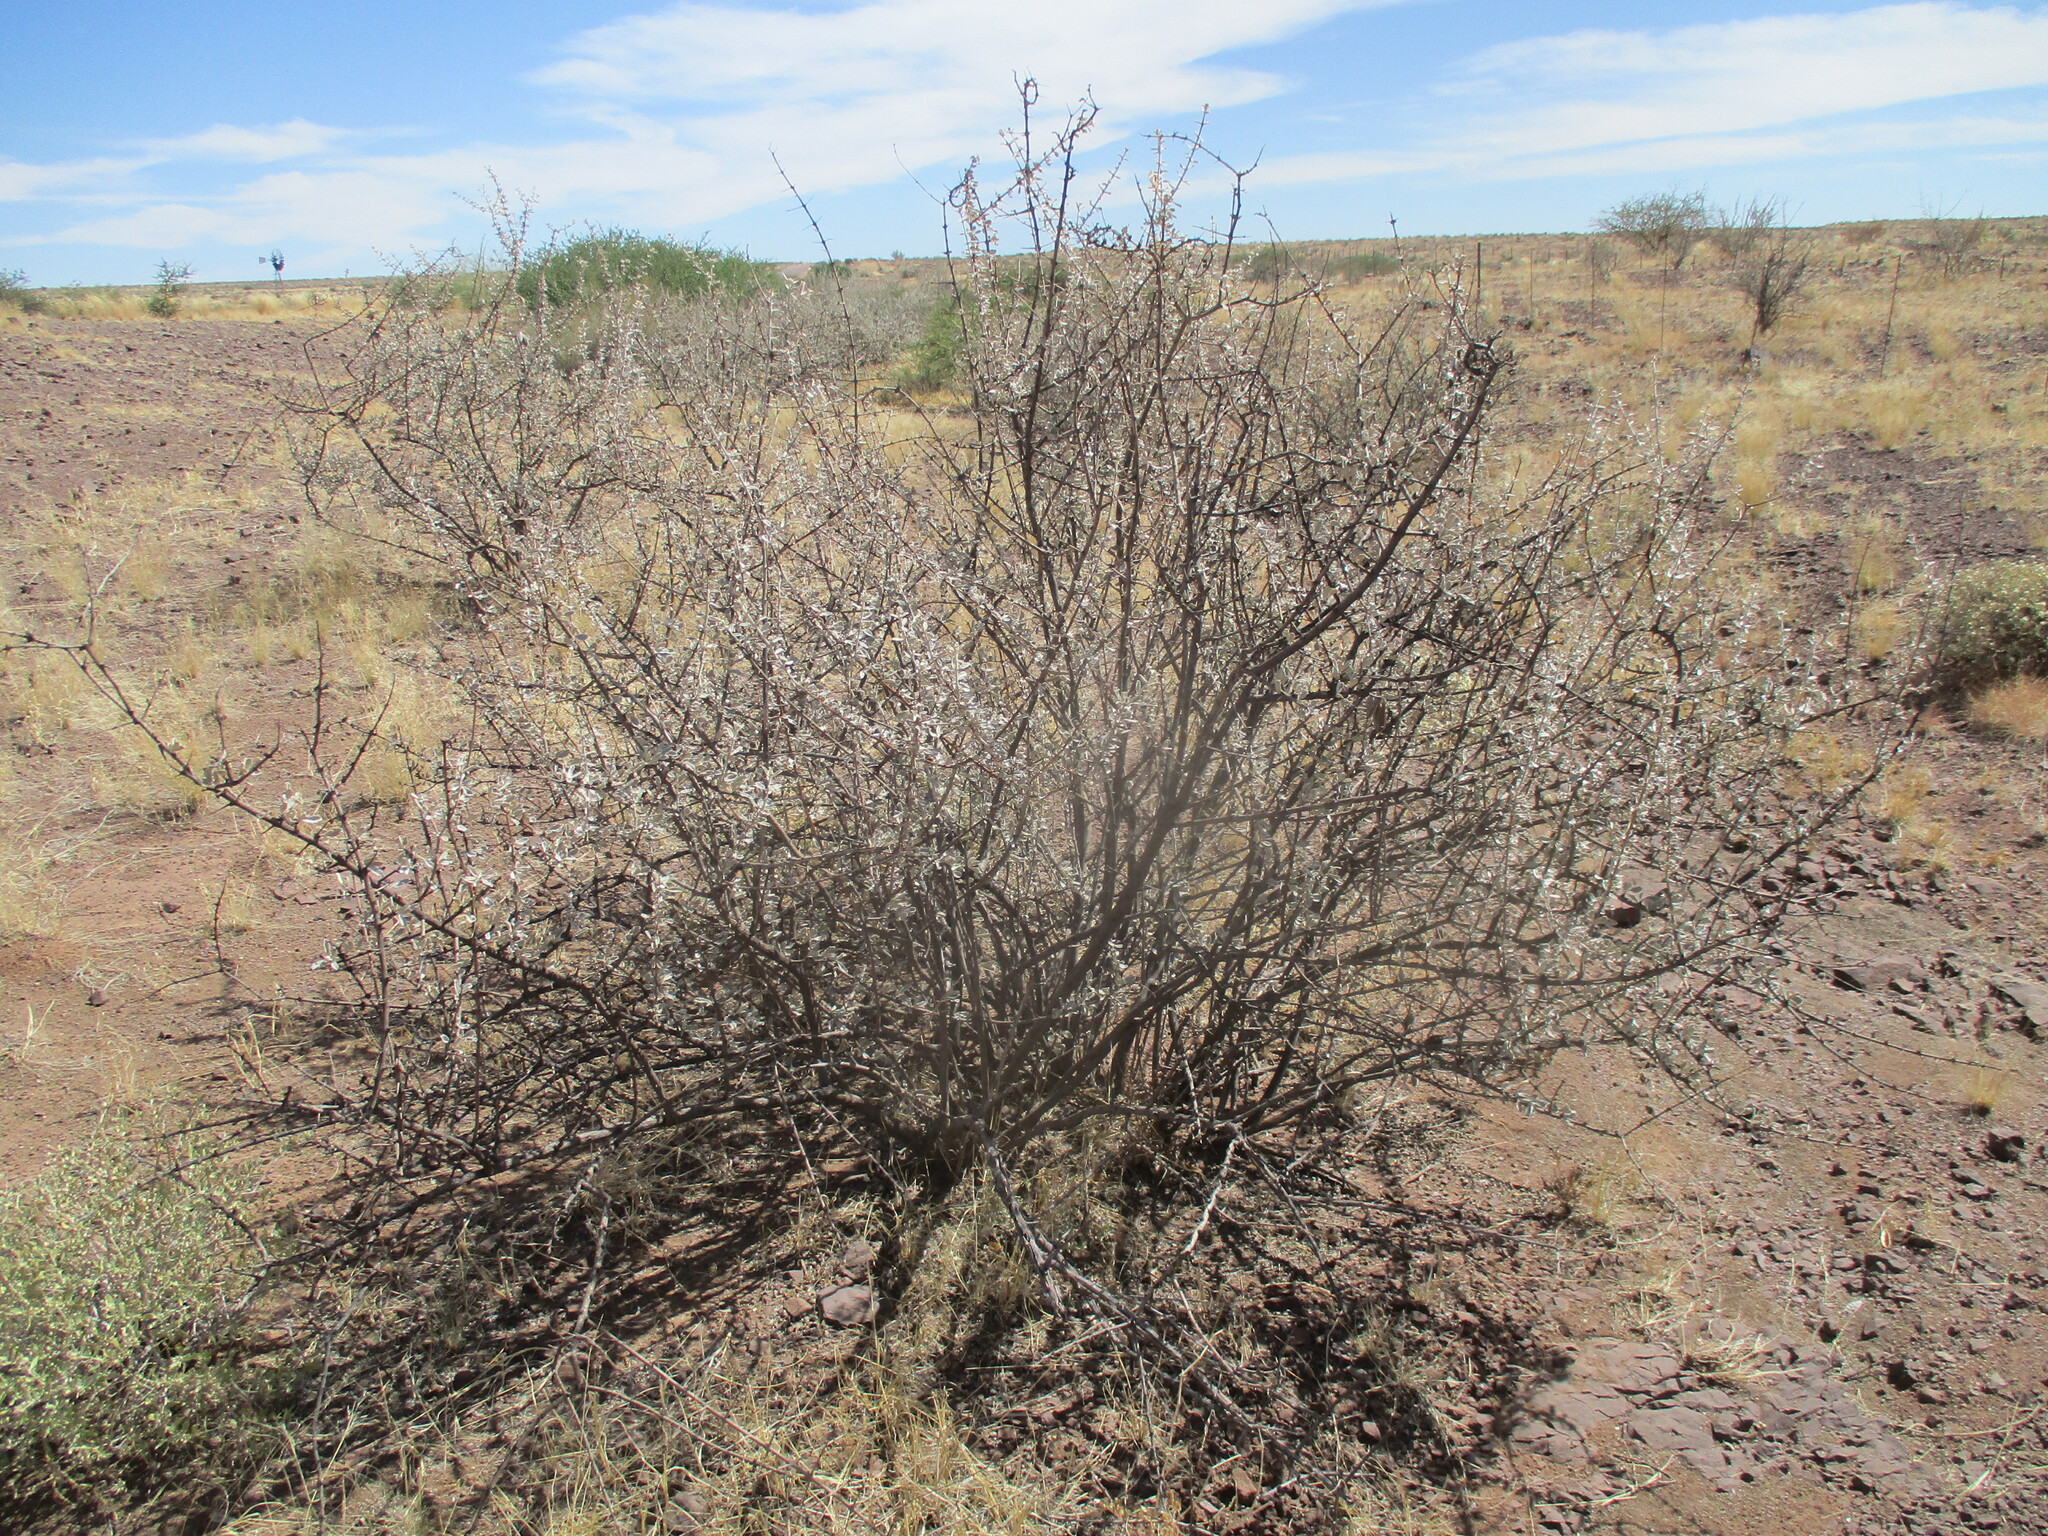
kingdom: Plantae
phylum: Tracheophyta
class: Magnoliopsida
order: Lamiales
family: Bignoniaceae
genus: Catophractes
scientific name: Catophractes alexandri
